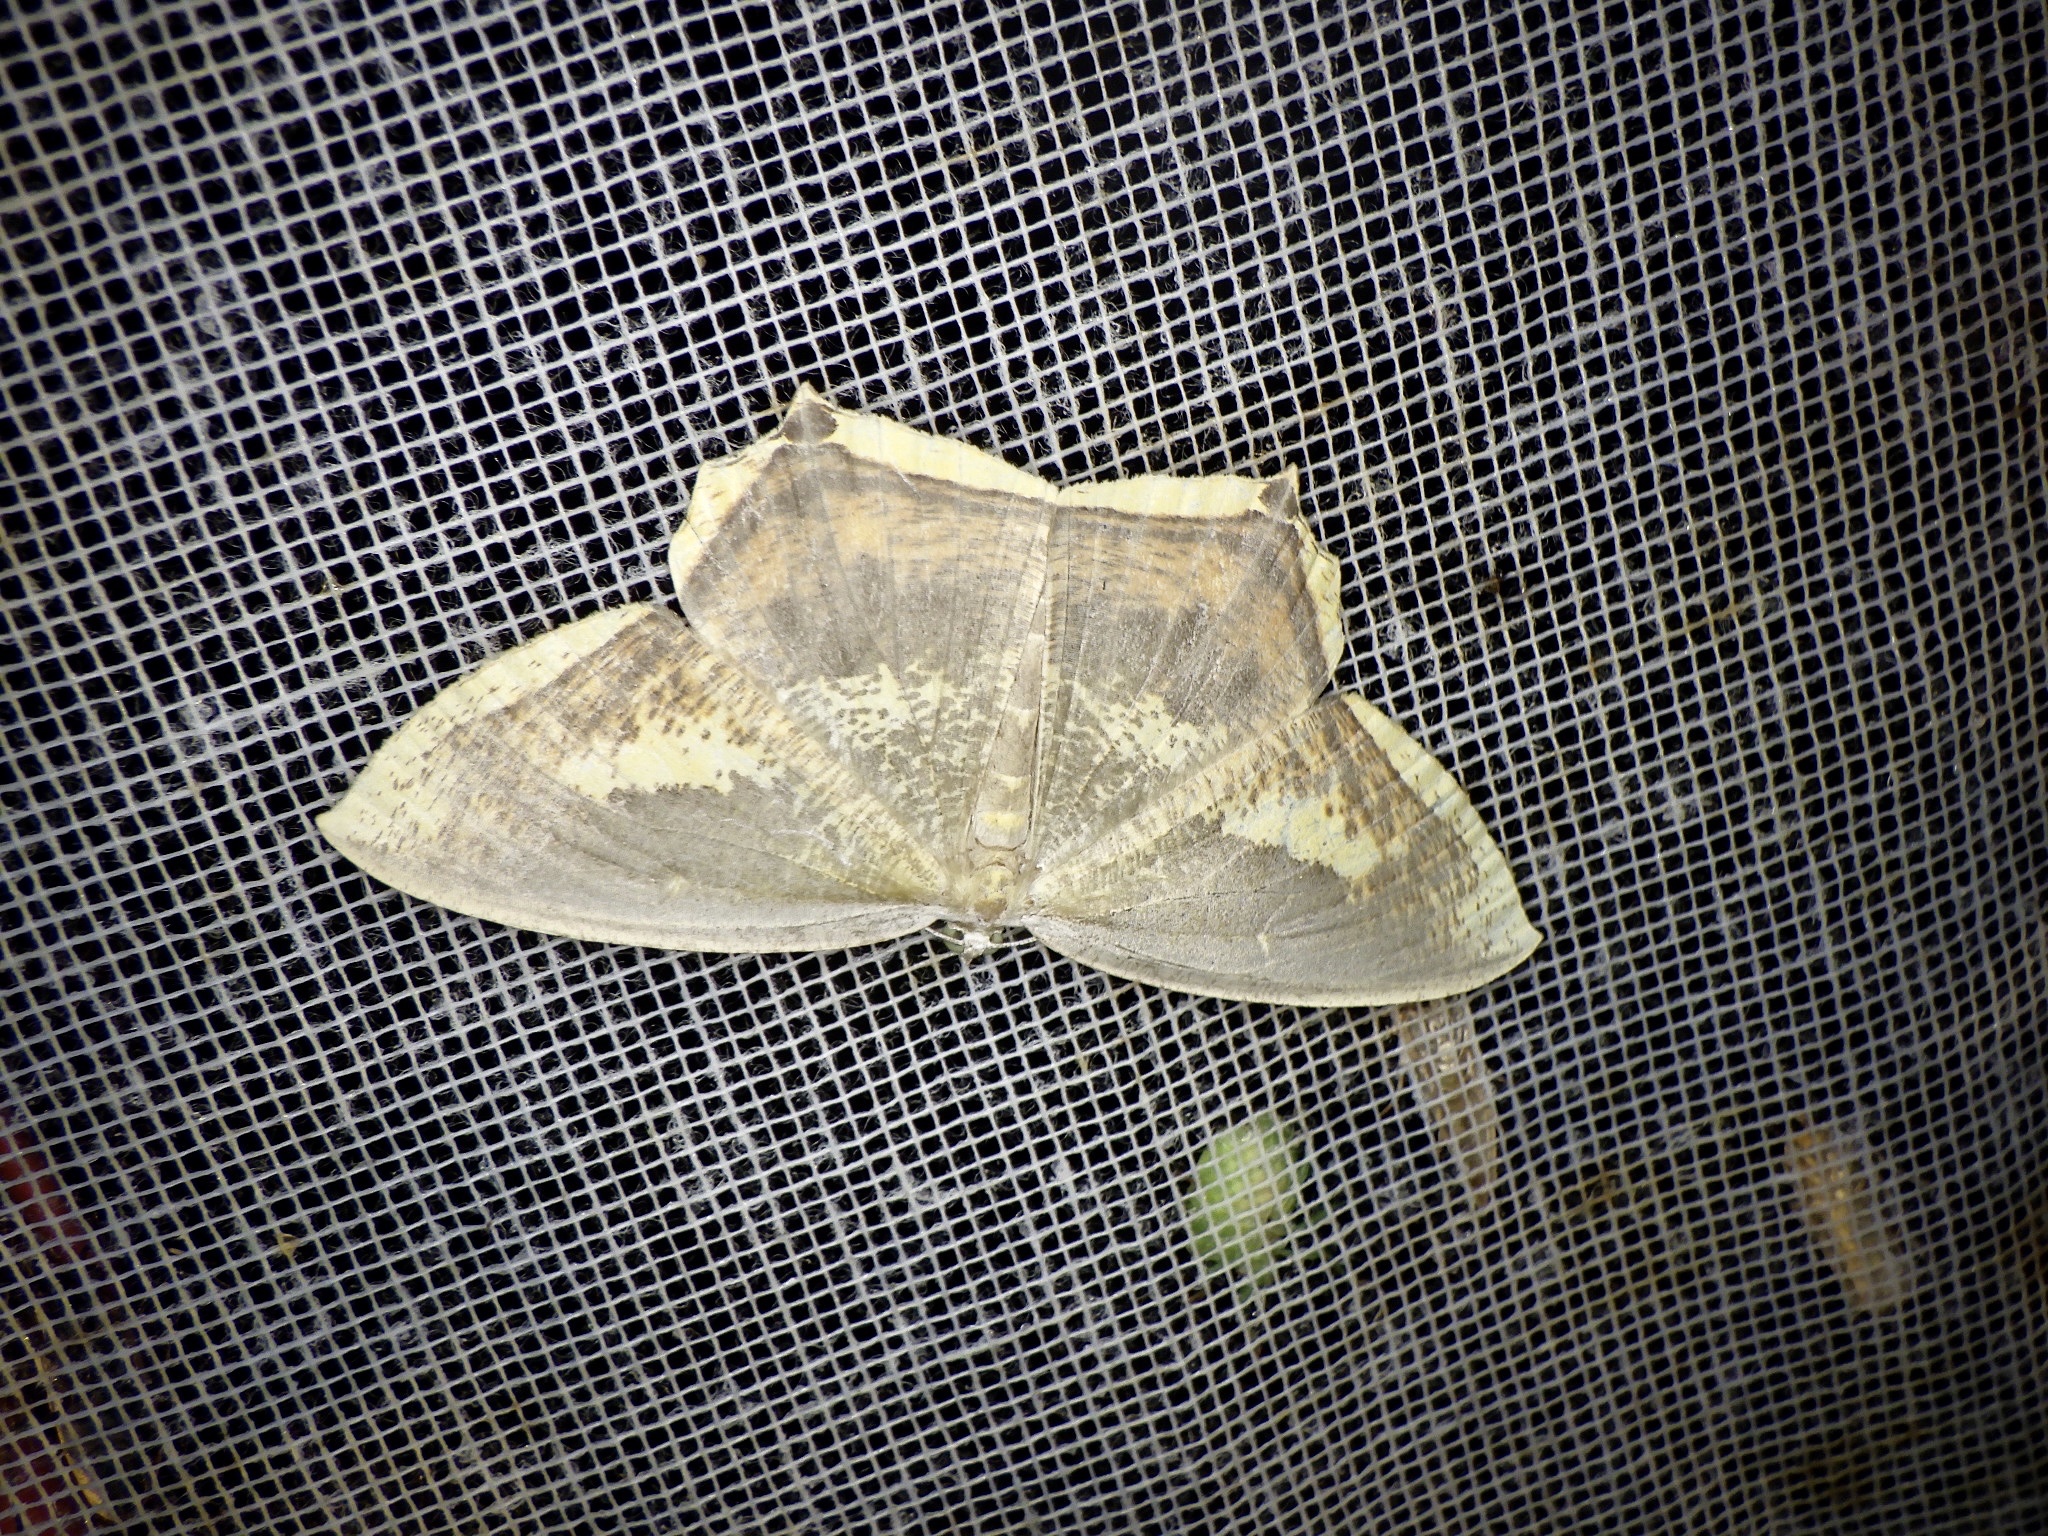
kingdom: Animalia
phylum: Arthropoda
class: Insecta
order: Lepidoptera
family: Geometridae
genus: Thinopteryx
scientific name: Thinopteryx delectans
